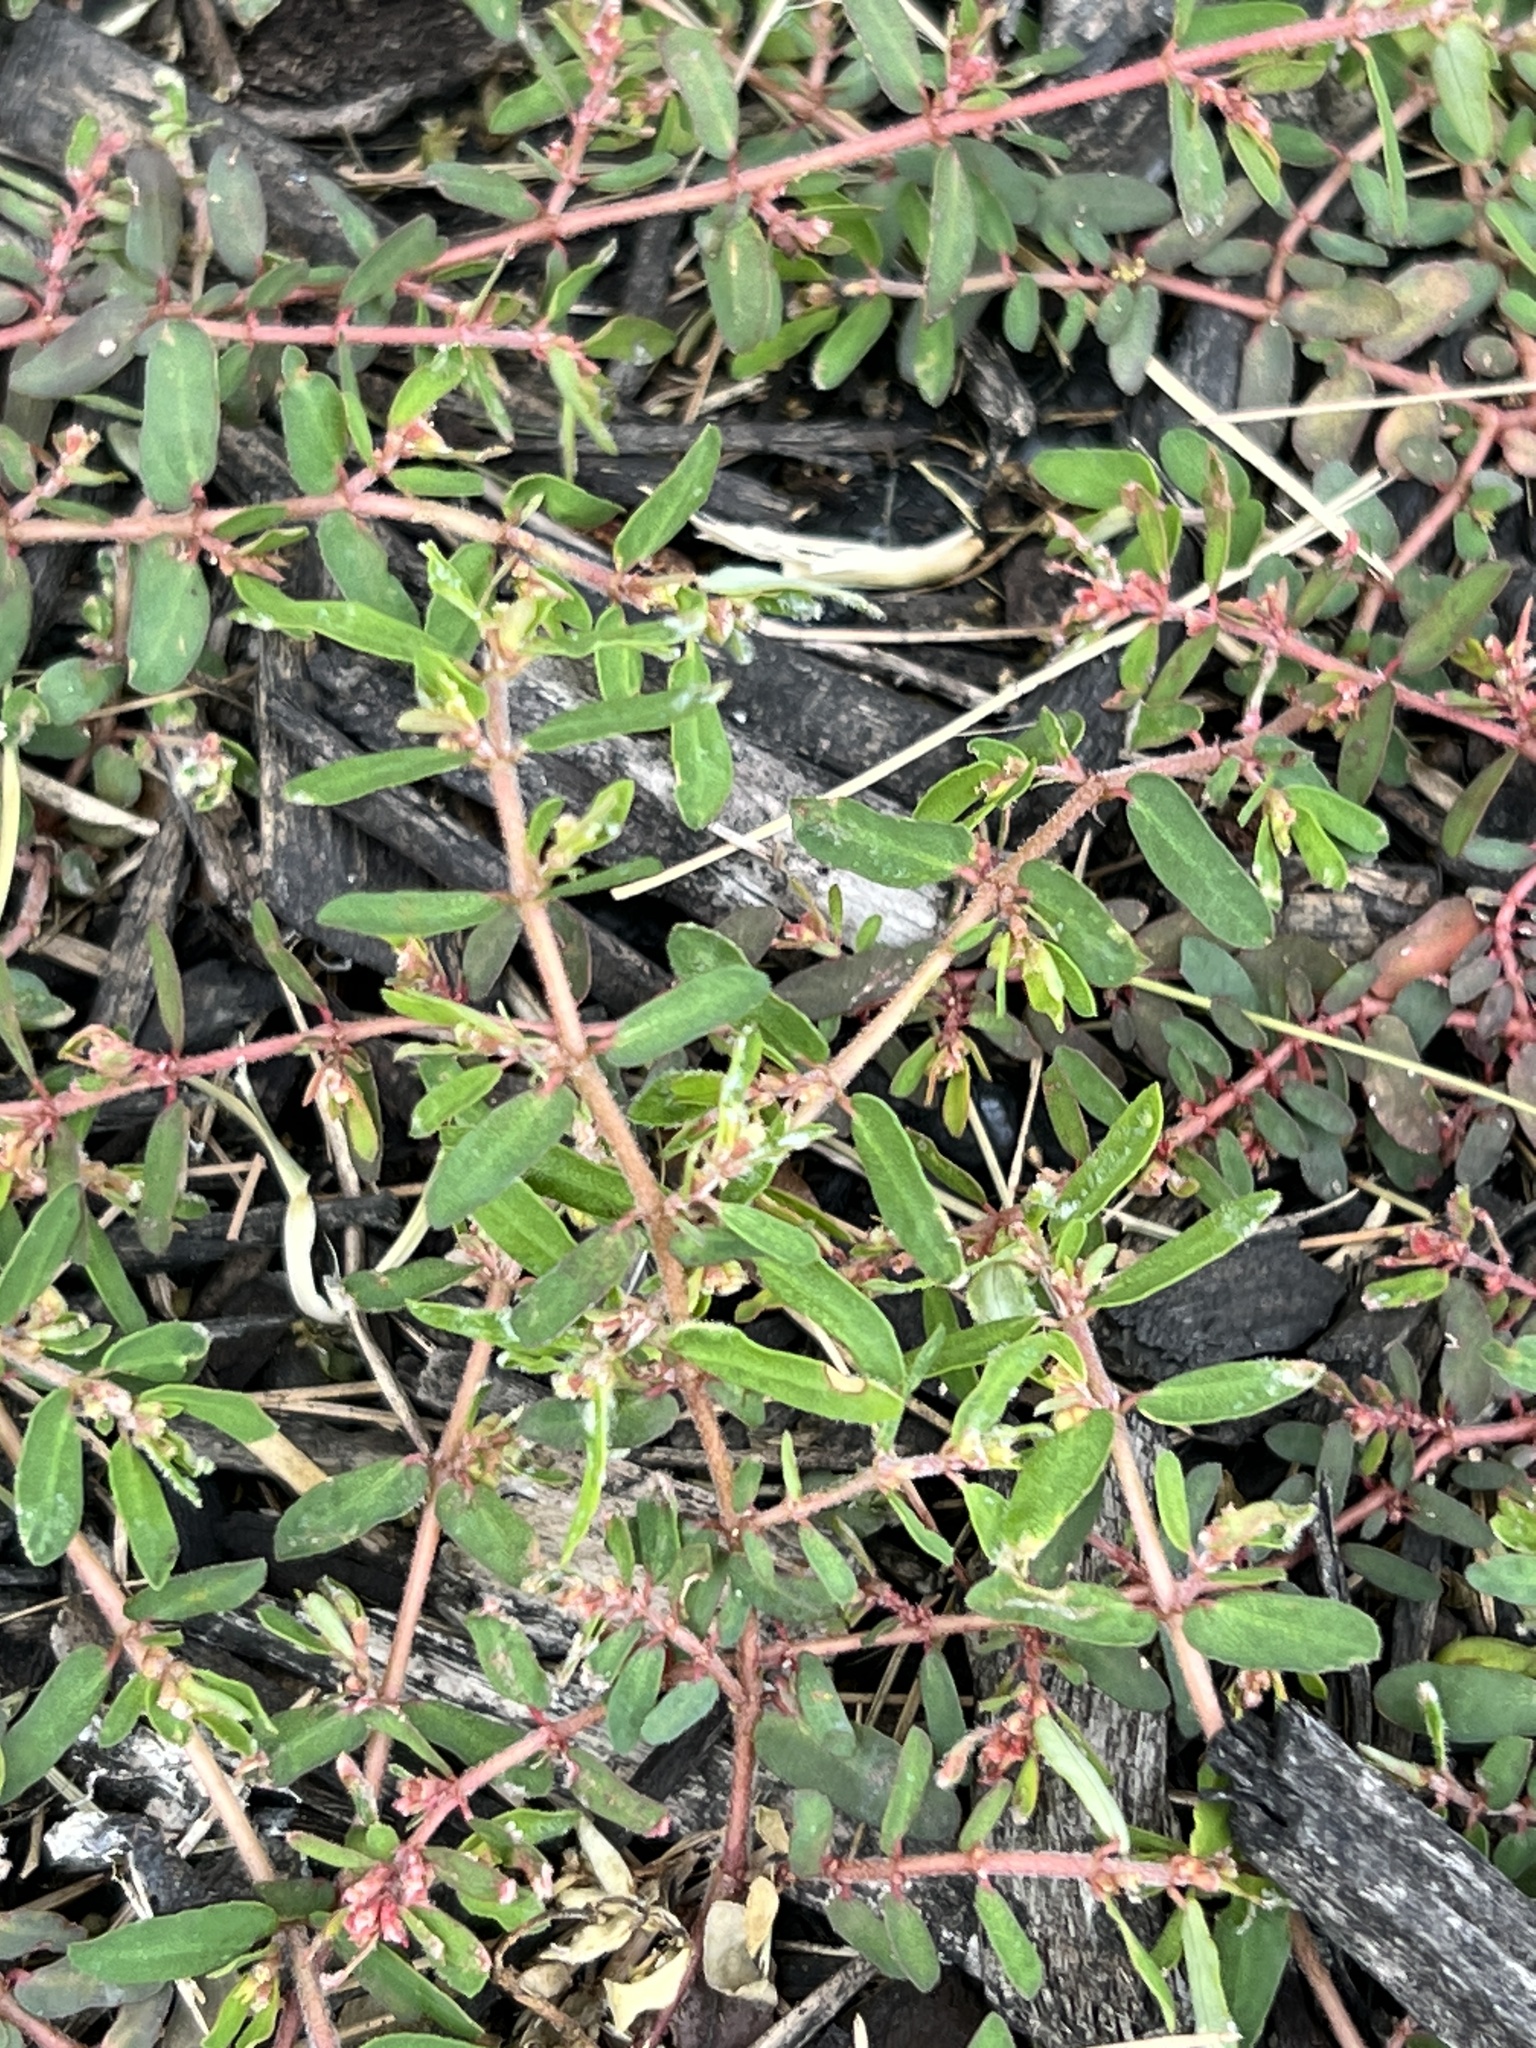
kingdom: Plantae
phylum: Tracheophyta
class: Magnoliopsida
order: Malpighiales
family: Euphorbiaceae
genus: Euphorbia
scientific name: Euphorbia maculata
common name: Spotted spurge
